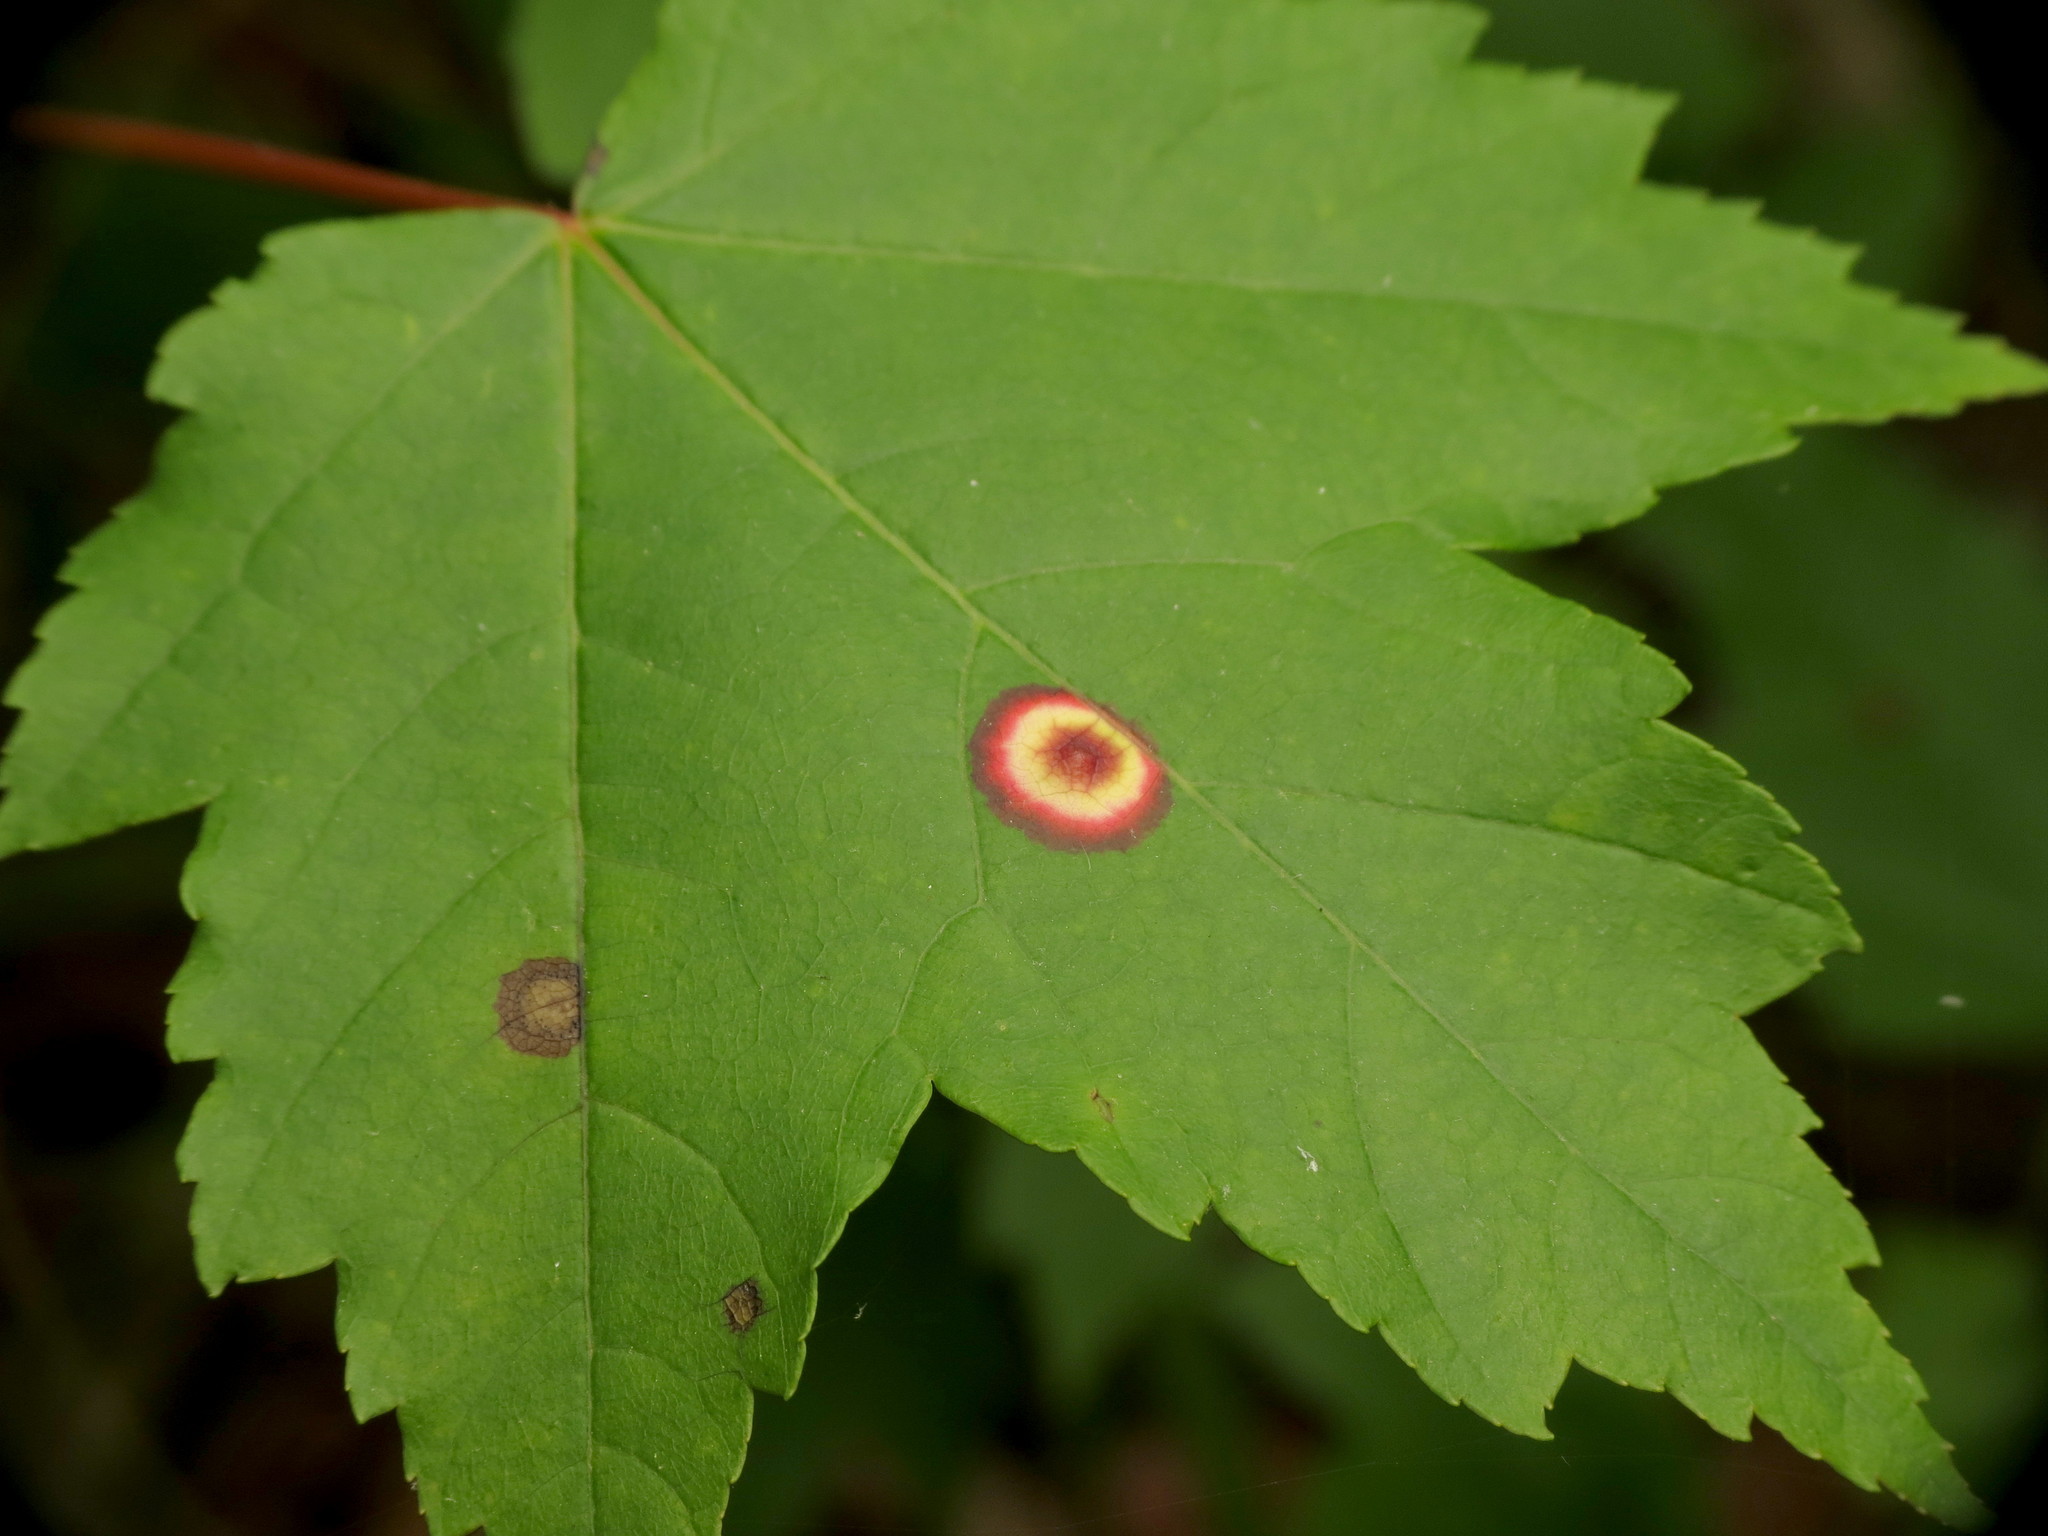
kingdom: Animalia
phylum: Arthropoda
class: Insecta
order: Diptera
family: Cecidomyiidae
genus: Acericecis
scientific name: Acericecis ocellaris
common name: Ocellate gall midge
